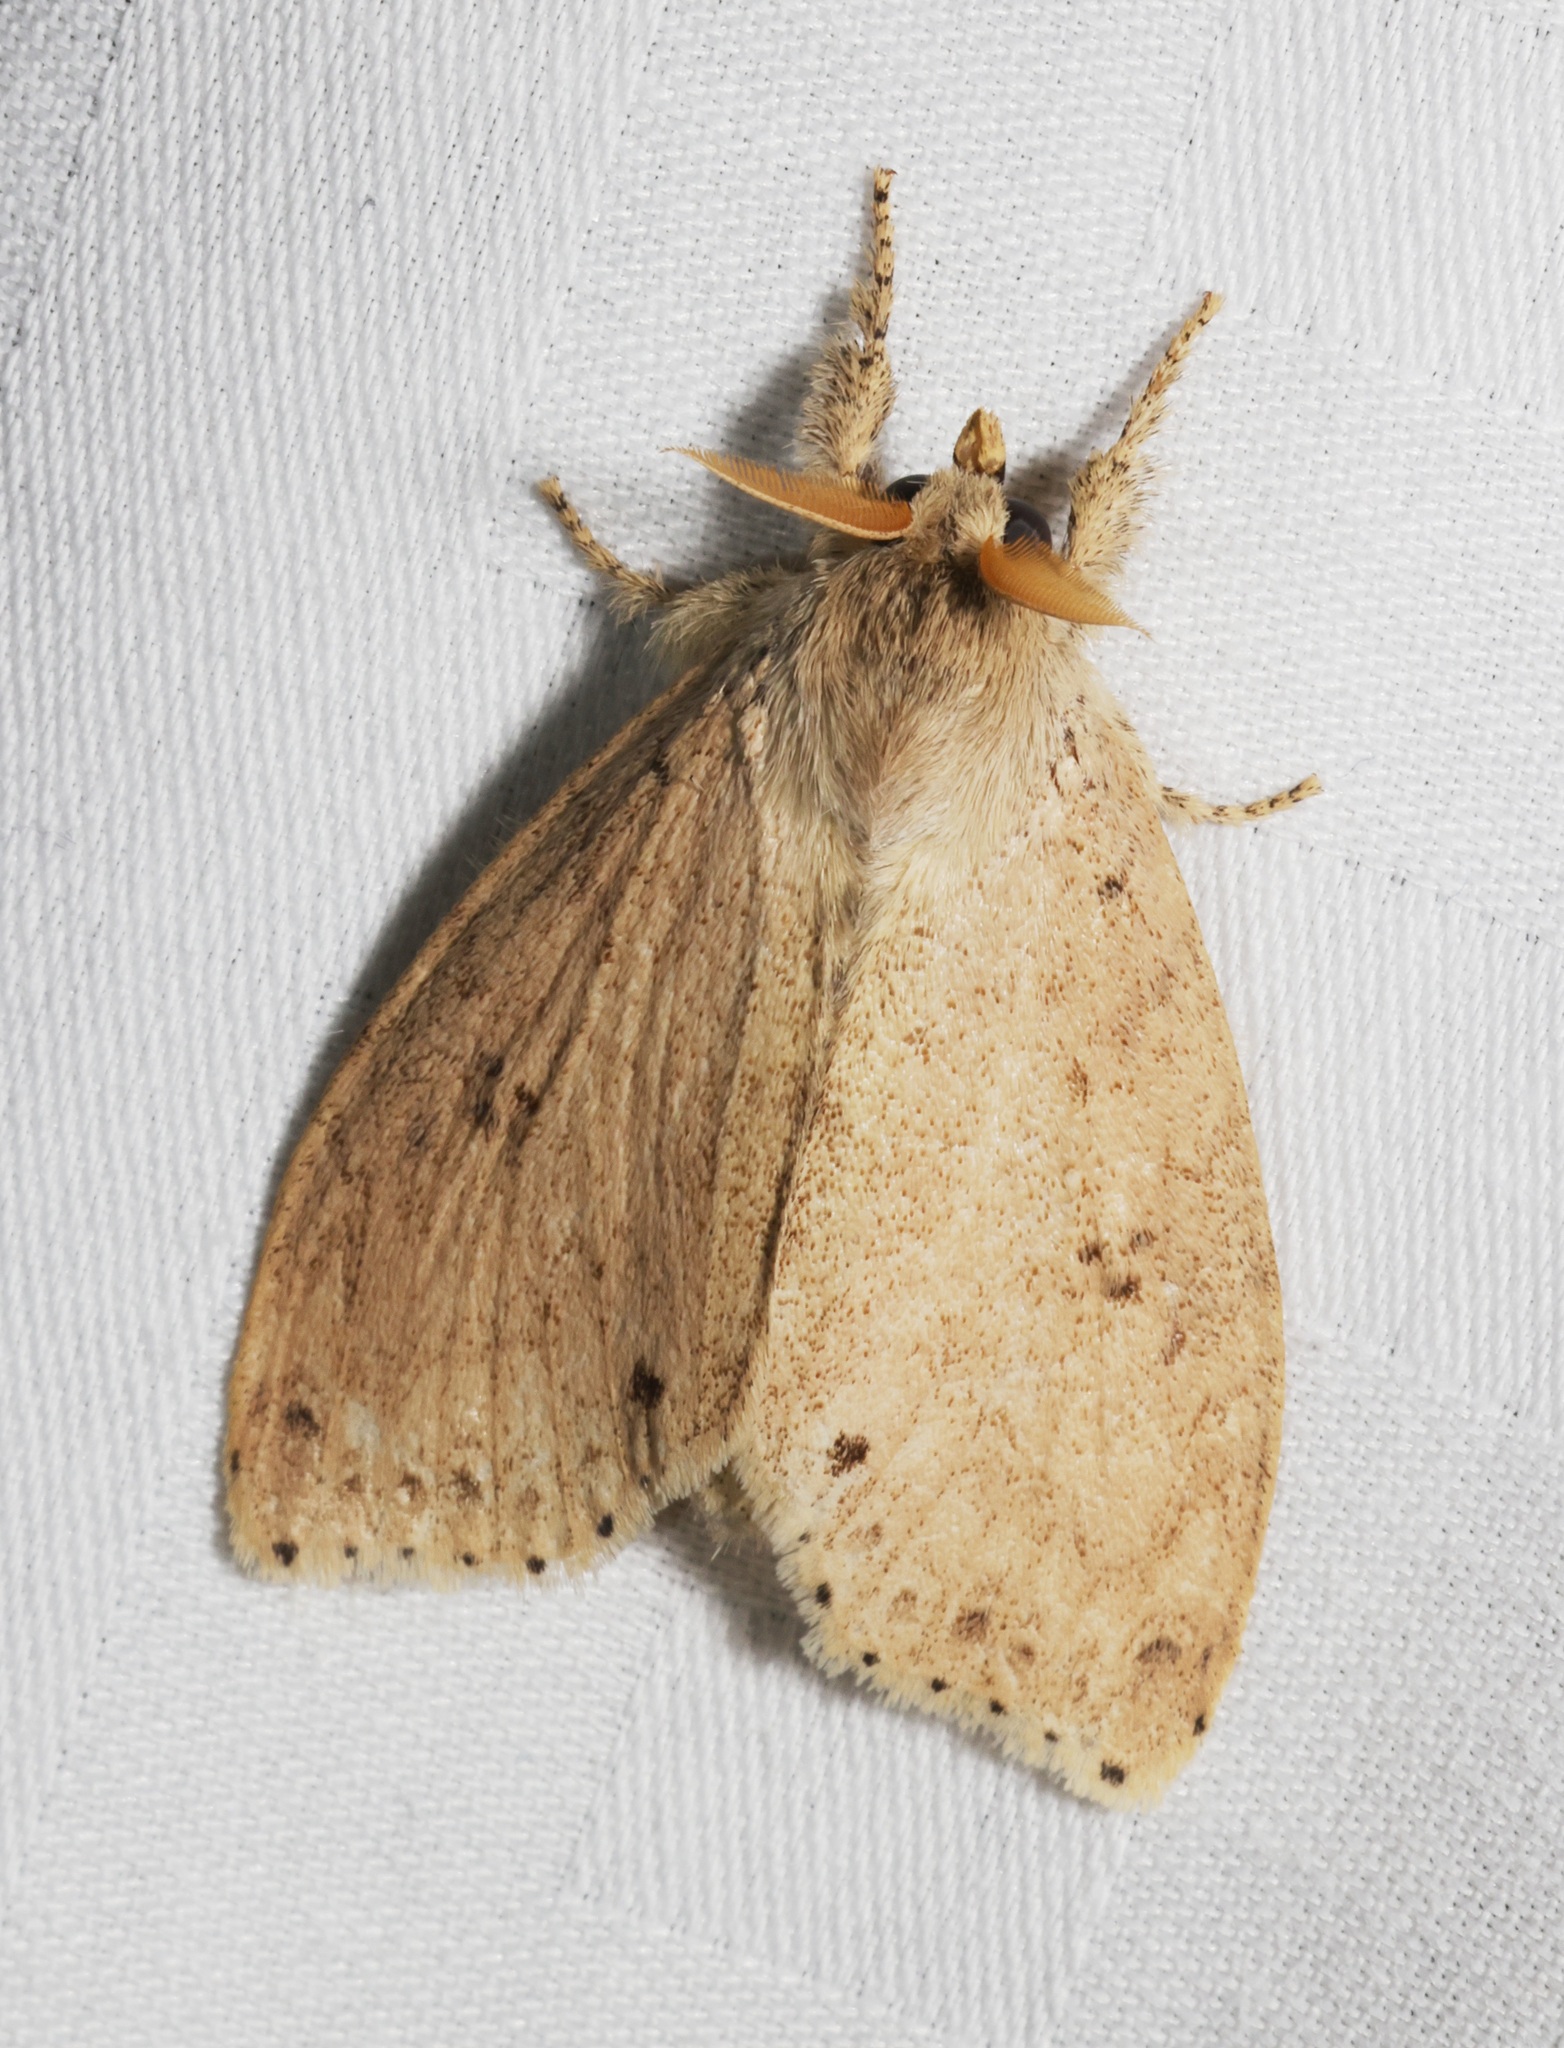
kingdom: Animalia
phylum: Arthropoda
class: Insecta
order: Lepidoptera
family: Erebidae
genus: Calliteara
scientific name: Calliteara angulata
